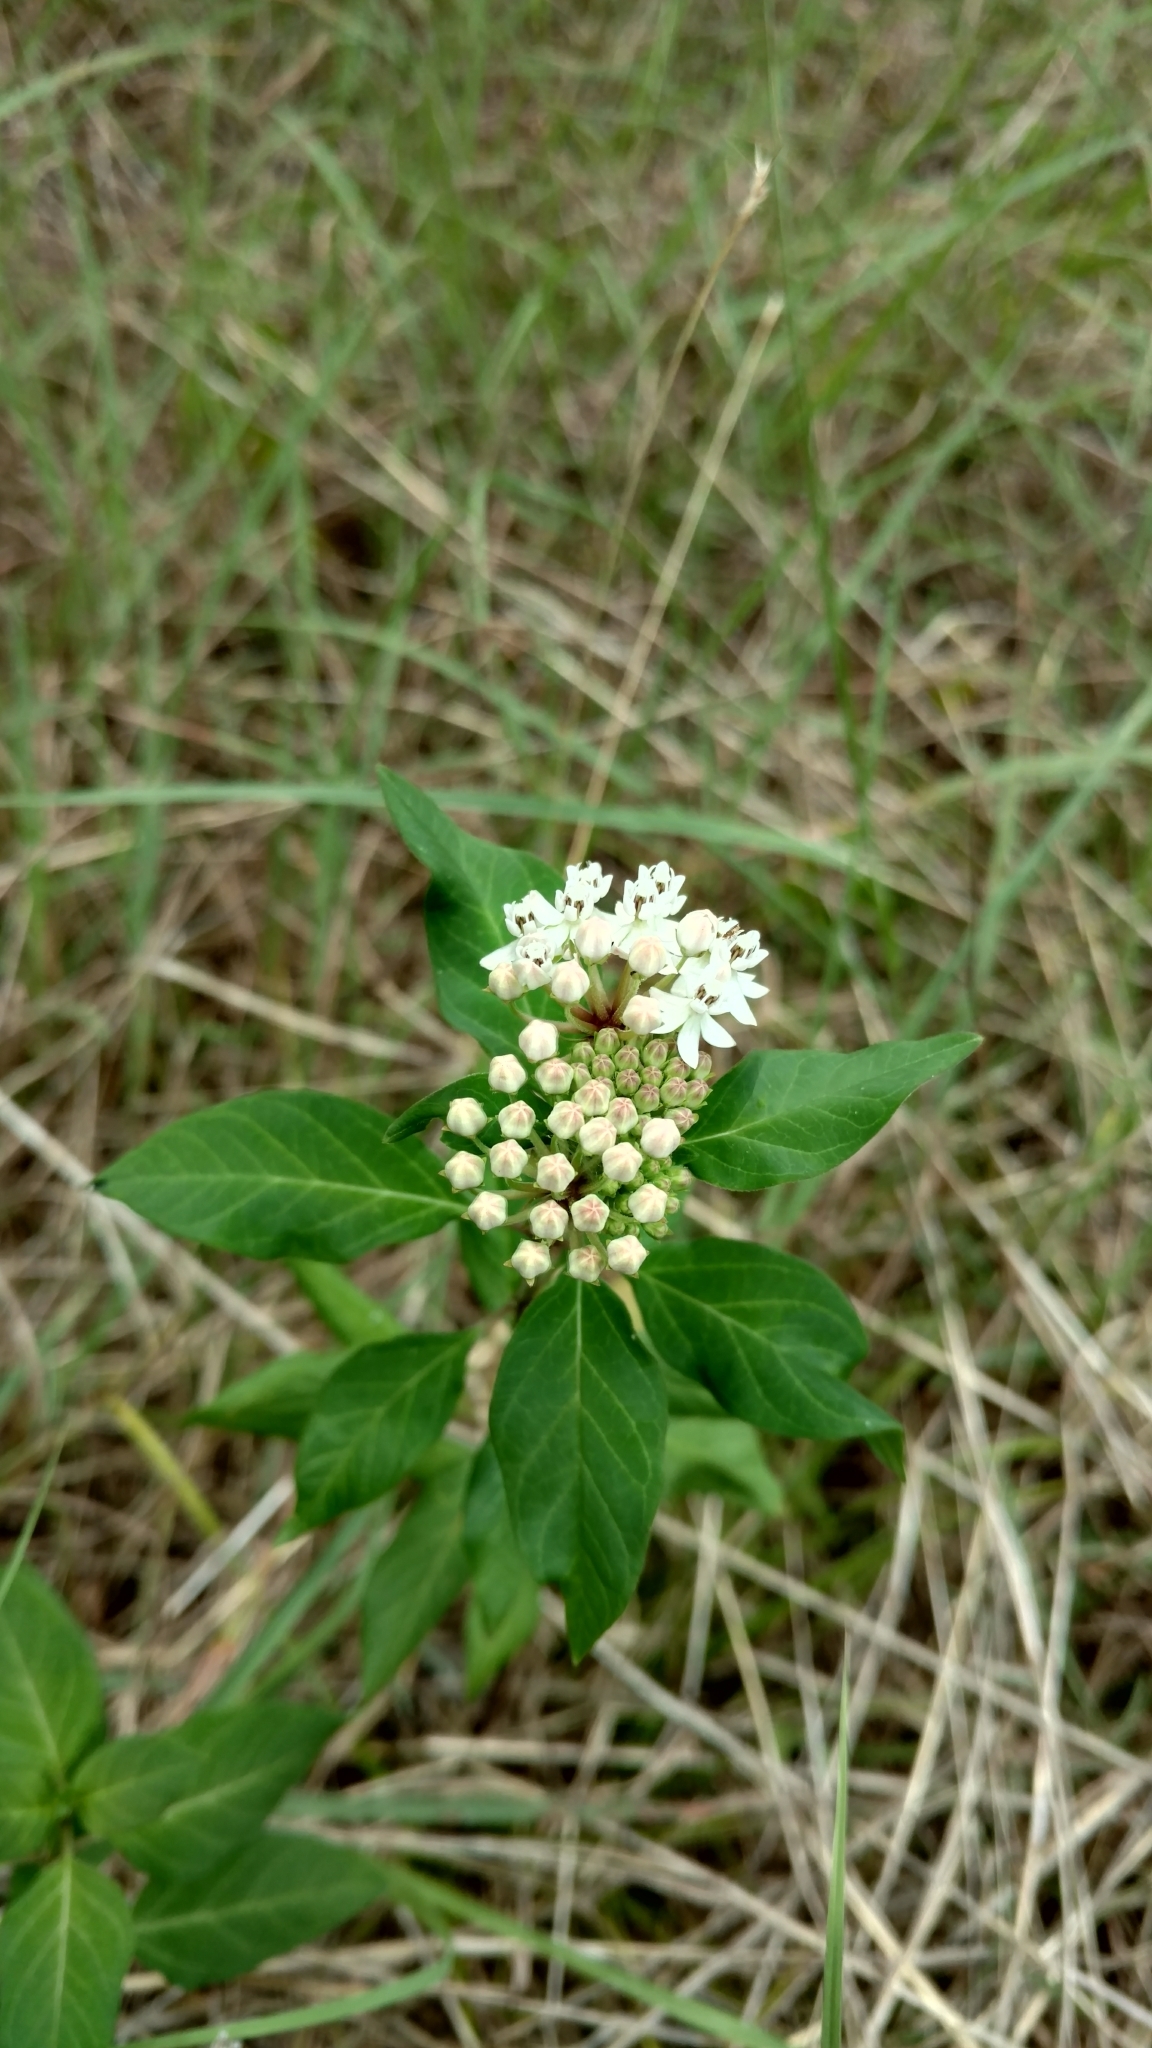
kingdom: Plantae
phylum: Tracheophyta
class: Magnoliopsida
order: Gentianales
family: Apocynaceae
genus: Asclepias
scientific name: Asclepias texana
